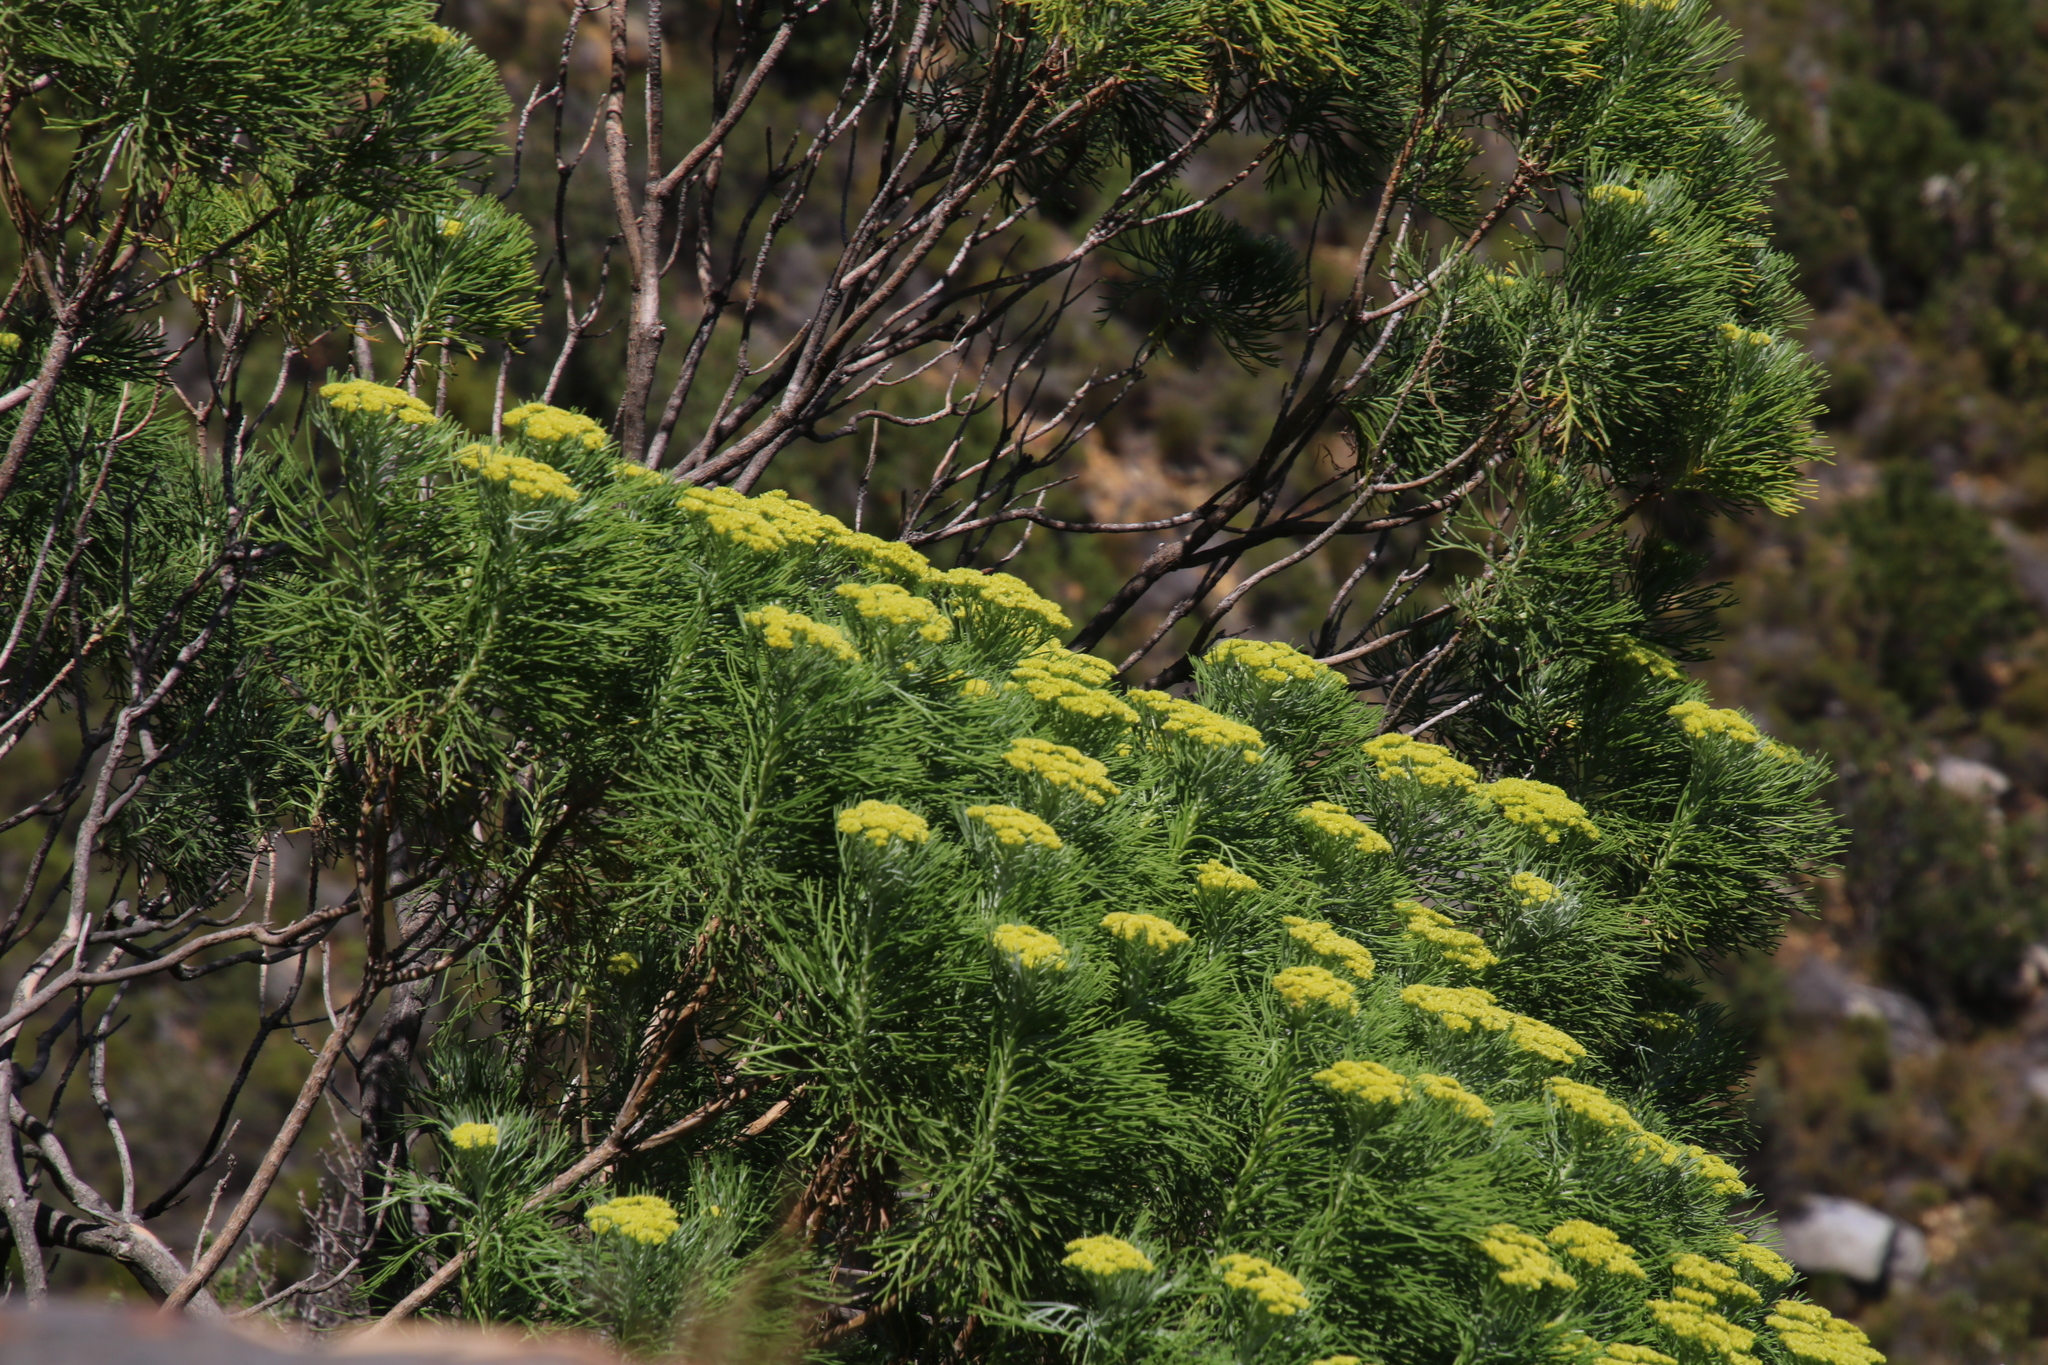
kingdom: Plantae
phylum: Tracheophyta
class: Magnoliopsida
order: Asterales
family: Asteraceae
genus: Hymenolepis
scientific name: Hymenolepis crithmifolia
